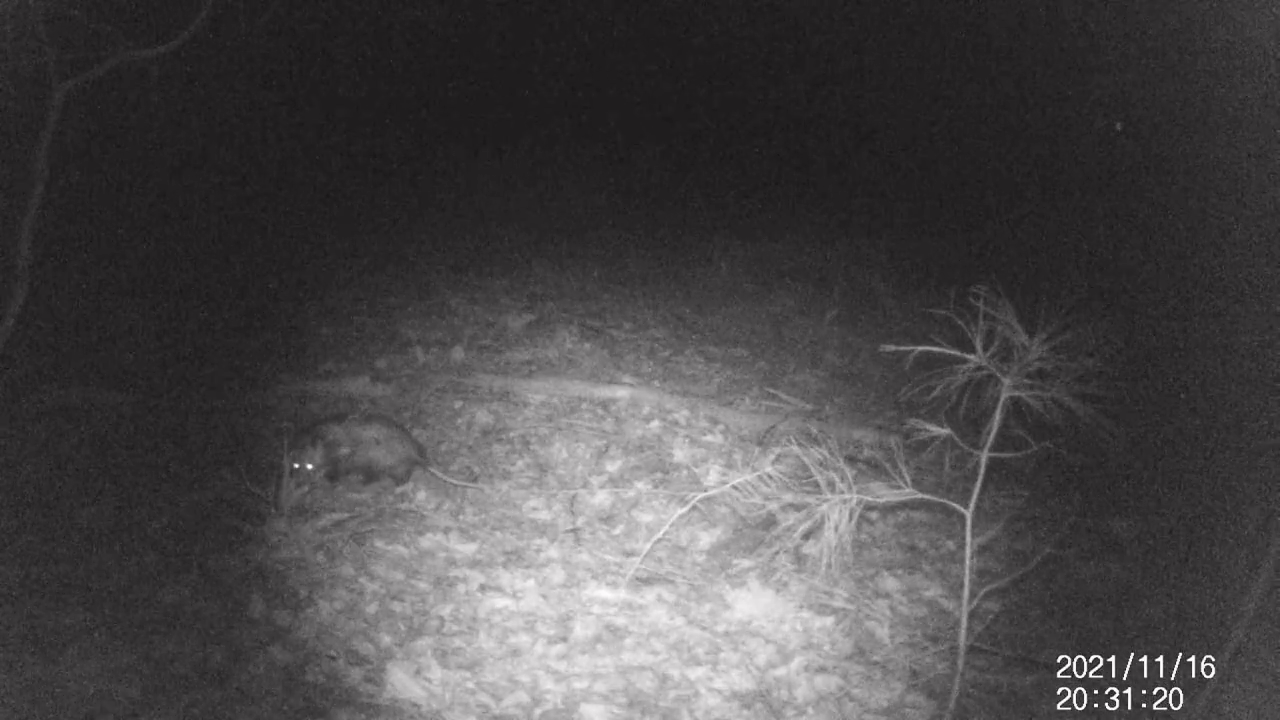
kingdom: Animalia
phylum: Chordata
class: Mammalia
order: Didelphimorphia
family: Didelphidae
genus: Didelphis
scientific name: Didelphis virginiana
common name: Virginia opossum
